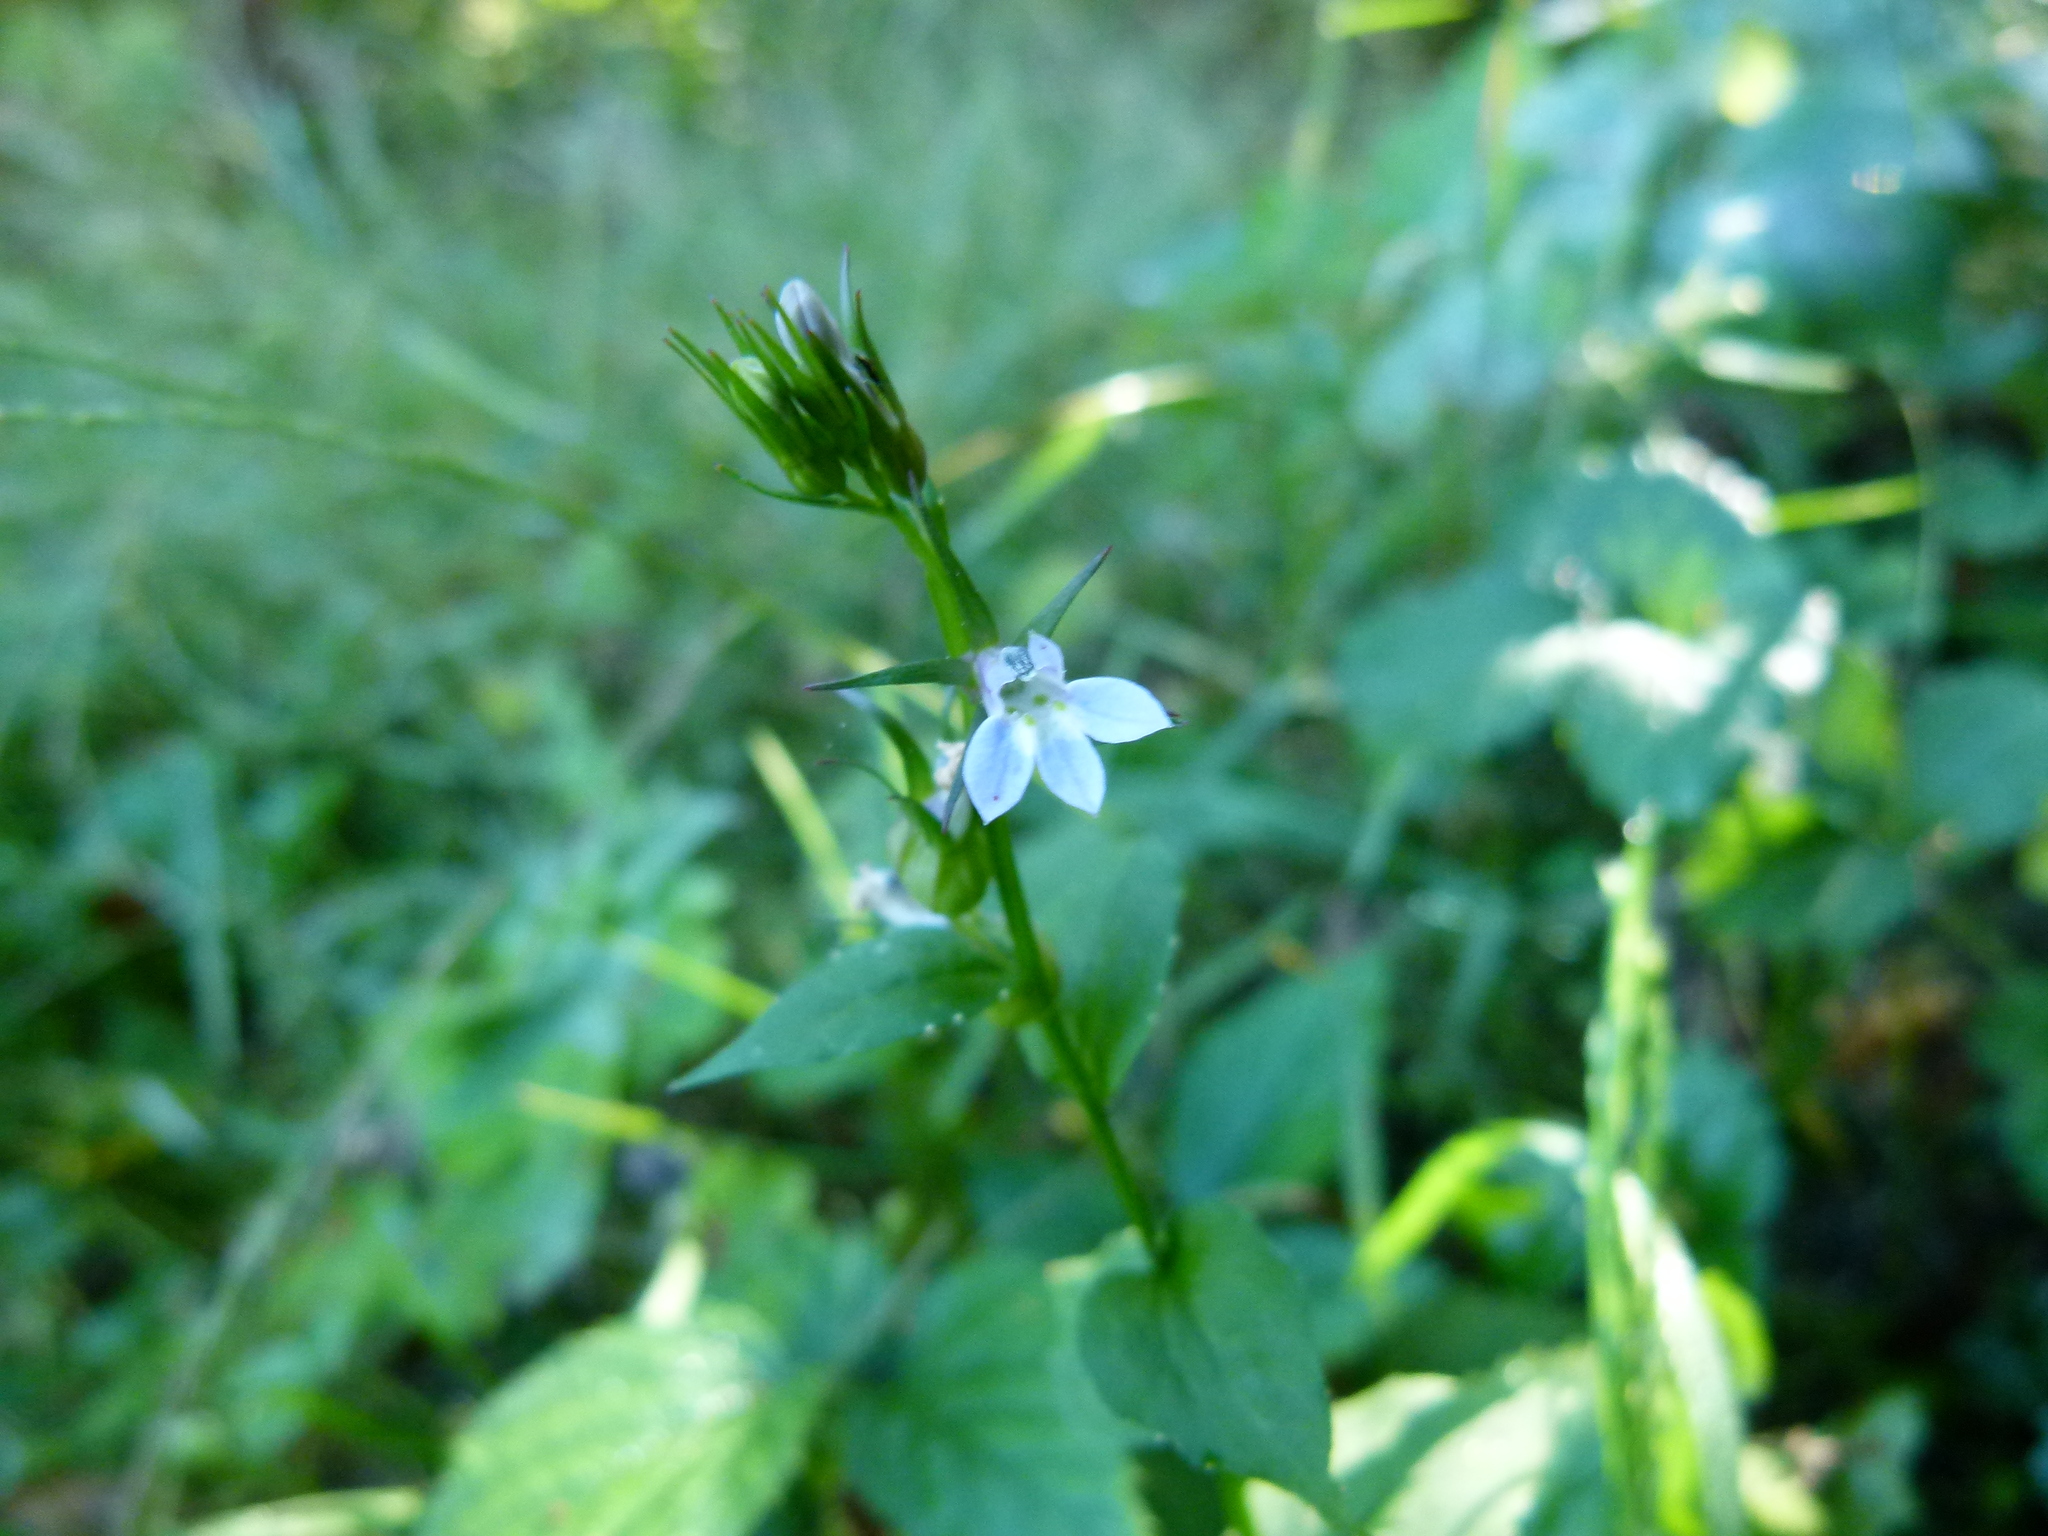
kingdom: Plantae
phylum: Tracheophyta
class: Magnoliopsida
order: Asterales
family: Campanulaceae
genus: Lobelia
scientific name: Lobelia inflata
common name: Indian tobacco
